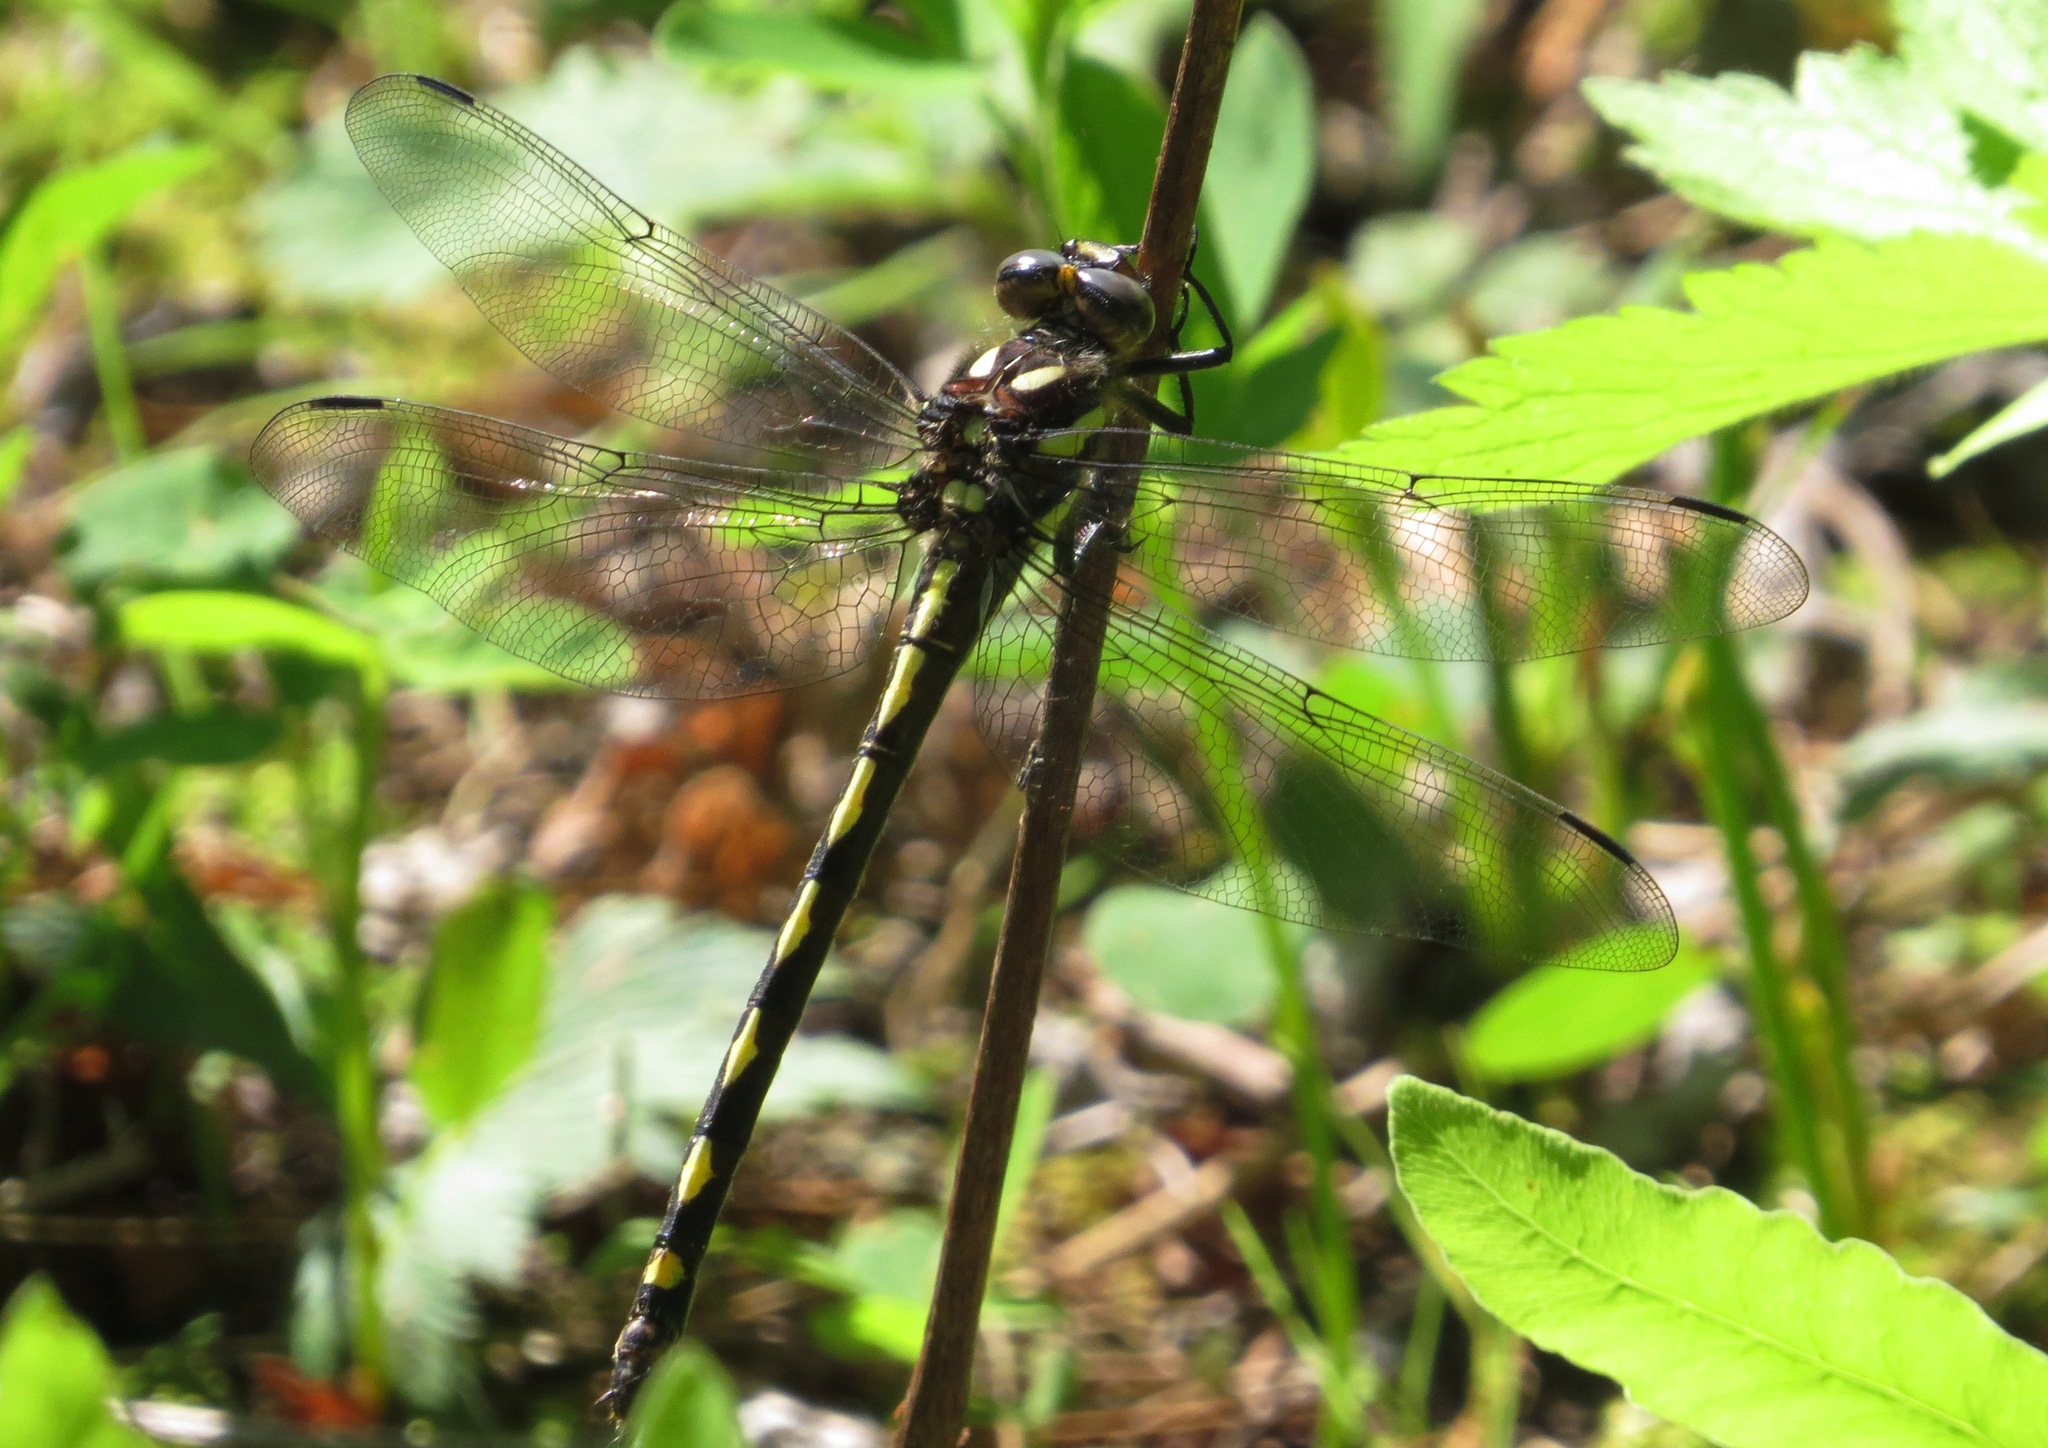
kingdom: Animalia
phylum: Arthropoda
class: Insecta
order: Odonata
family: Cordulegastridae
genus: Cordulegaster
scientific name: Cordulegaster obliqua
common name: Arrowhead spiketail
